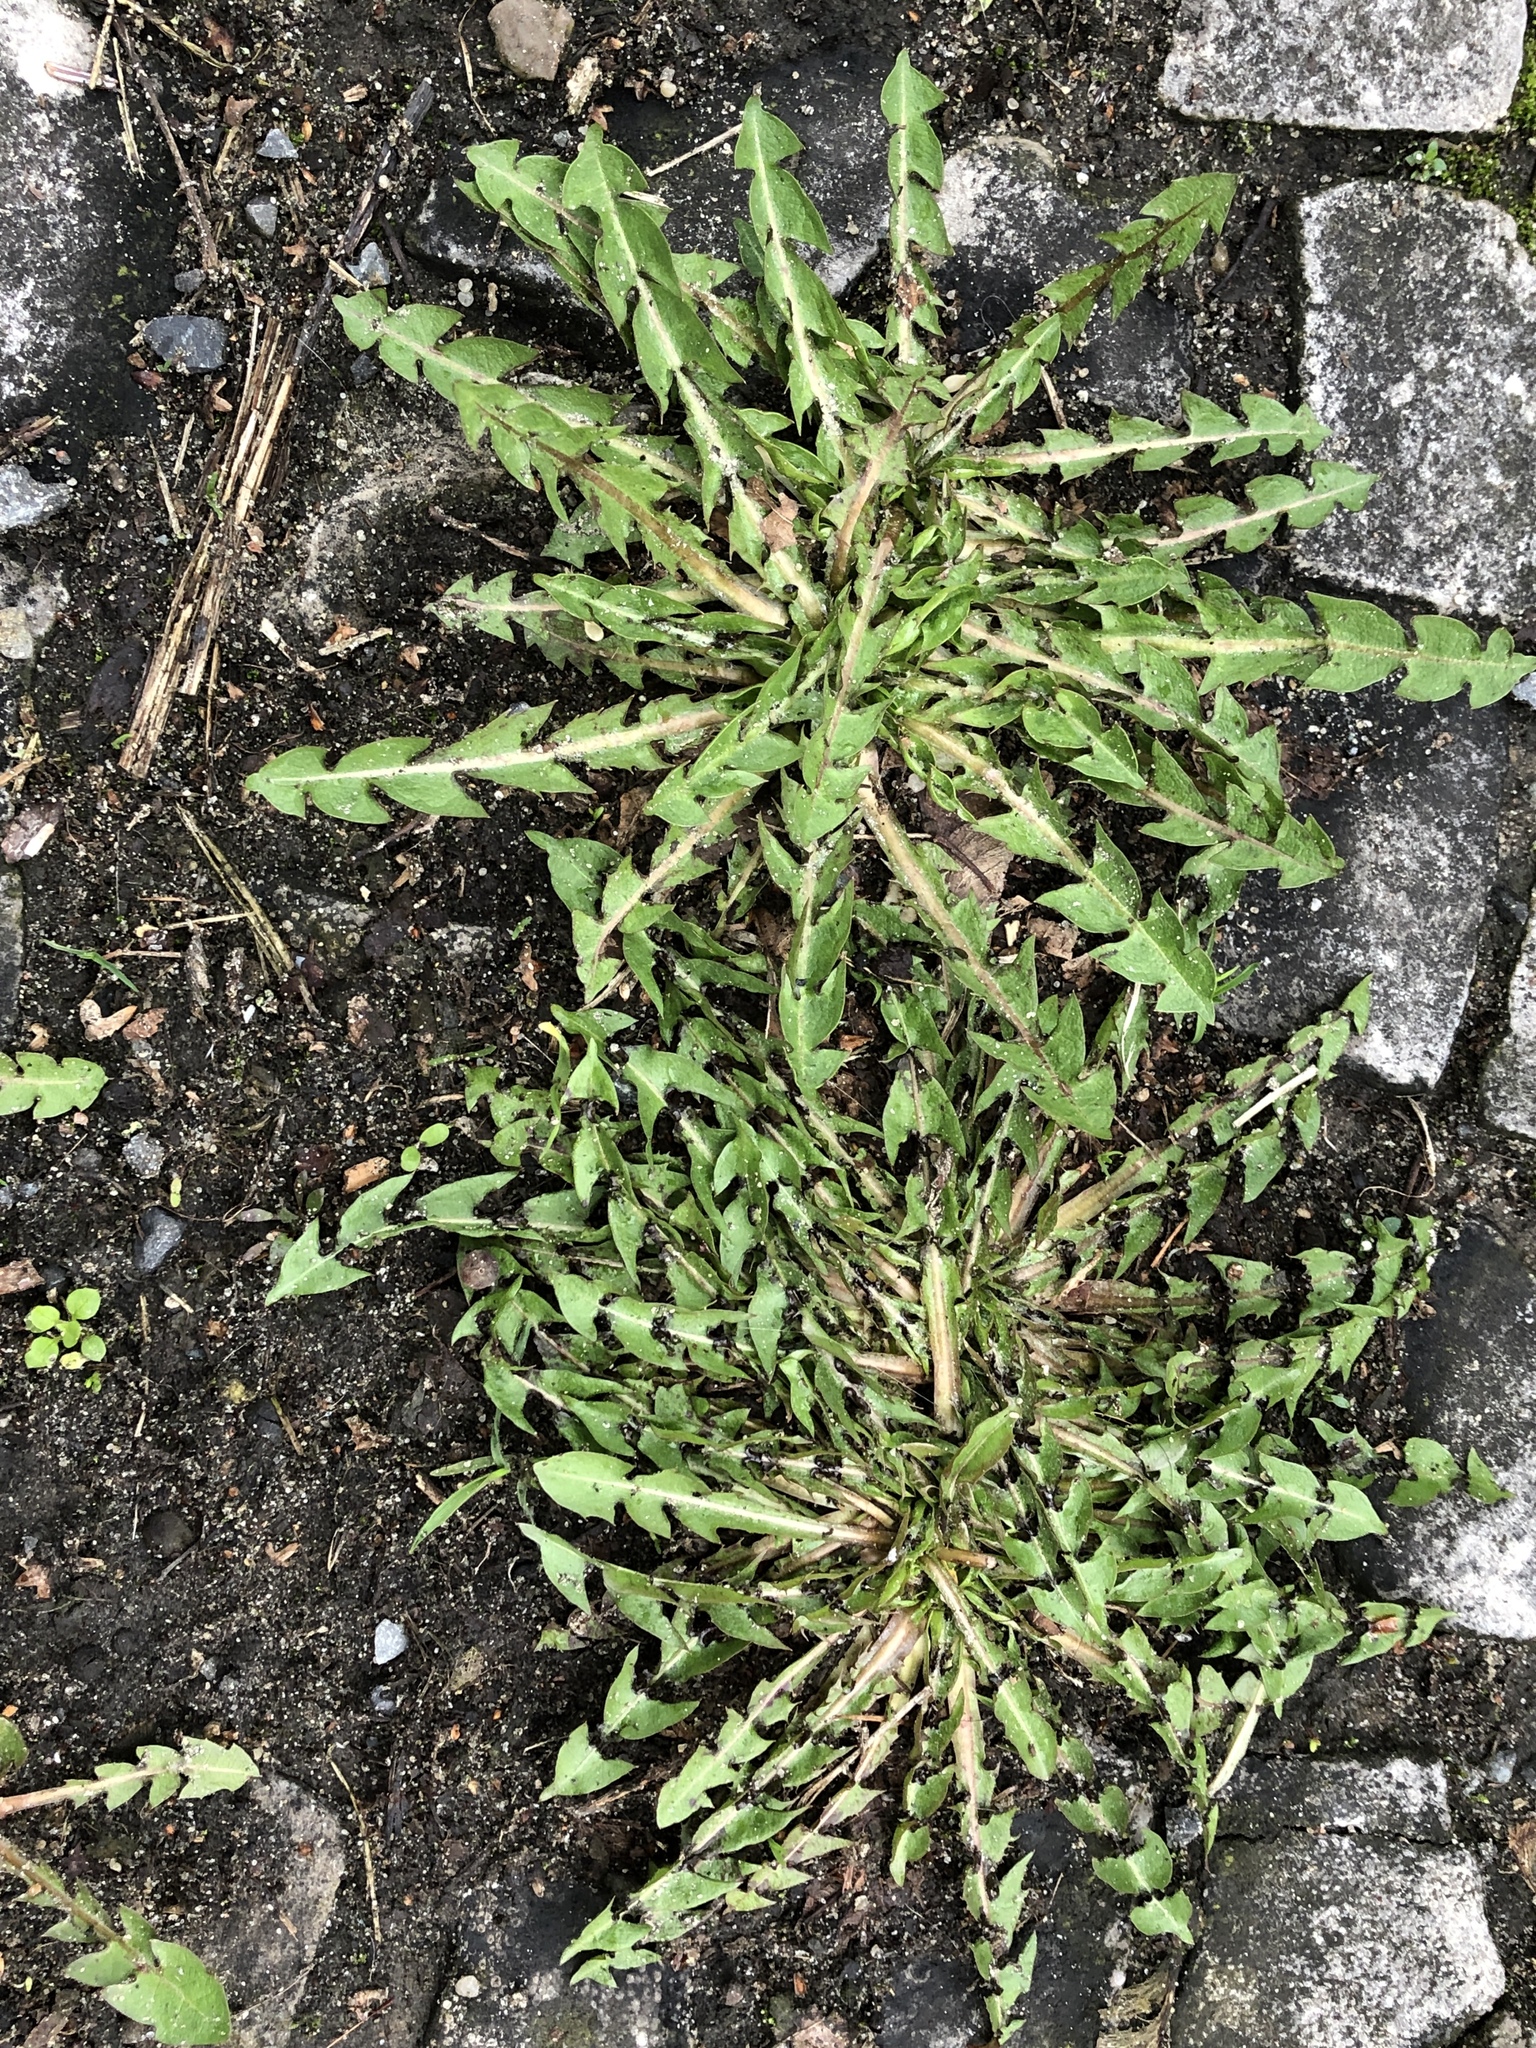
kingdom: Plantae
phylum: Tracheophyta
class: Magnoliopsida
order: Asterales
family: Asteraceae
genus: Taraxacum
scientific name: Taraxacum officinale
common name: Common dandelion
